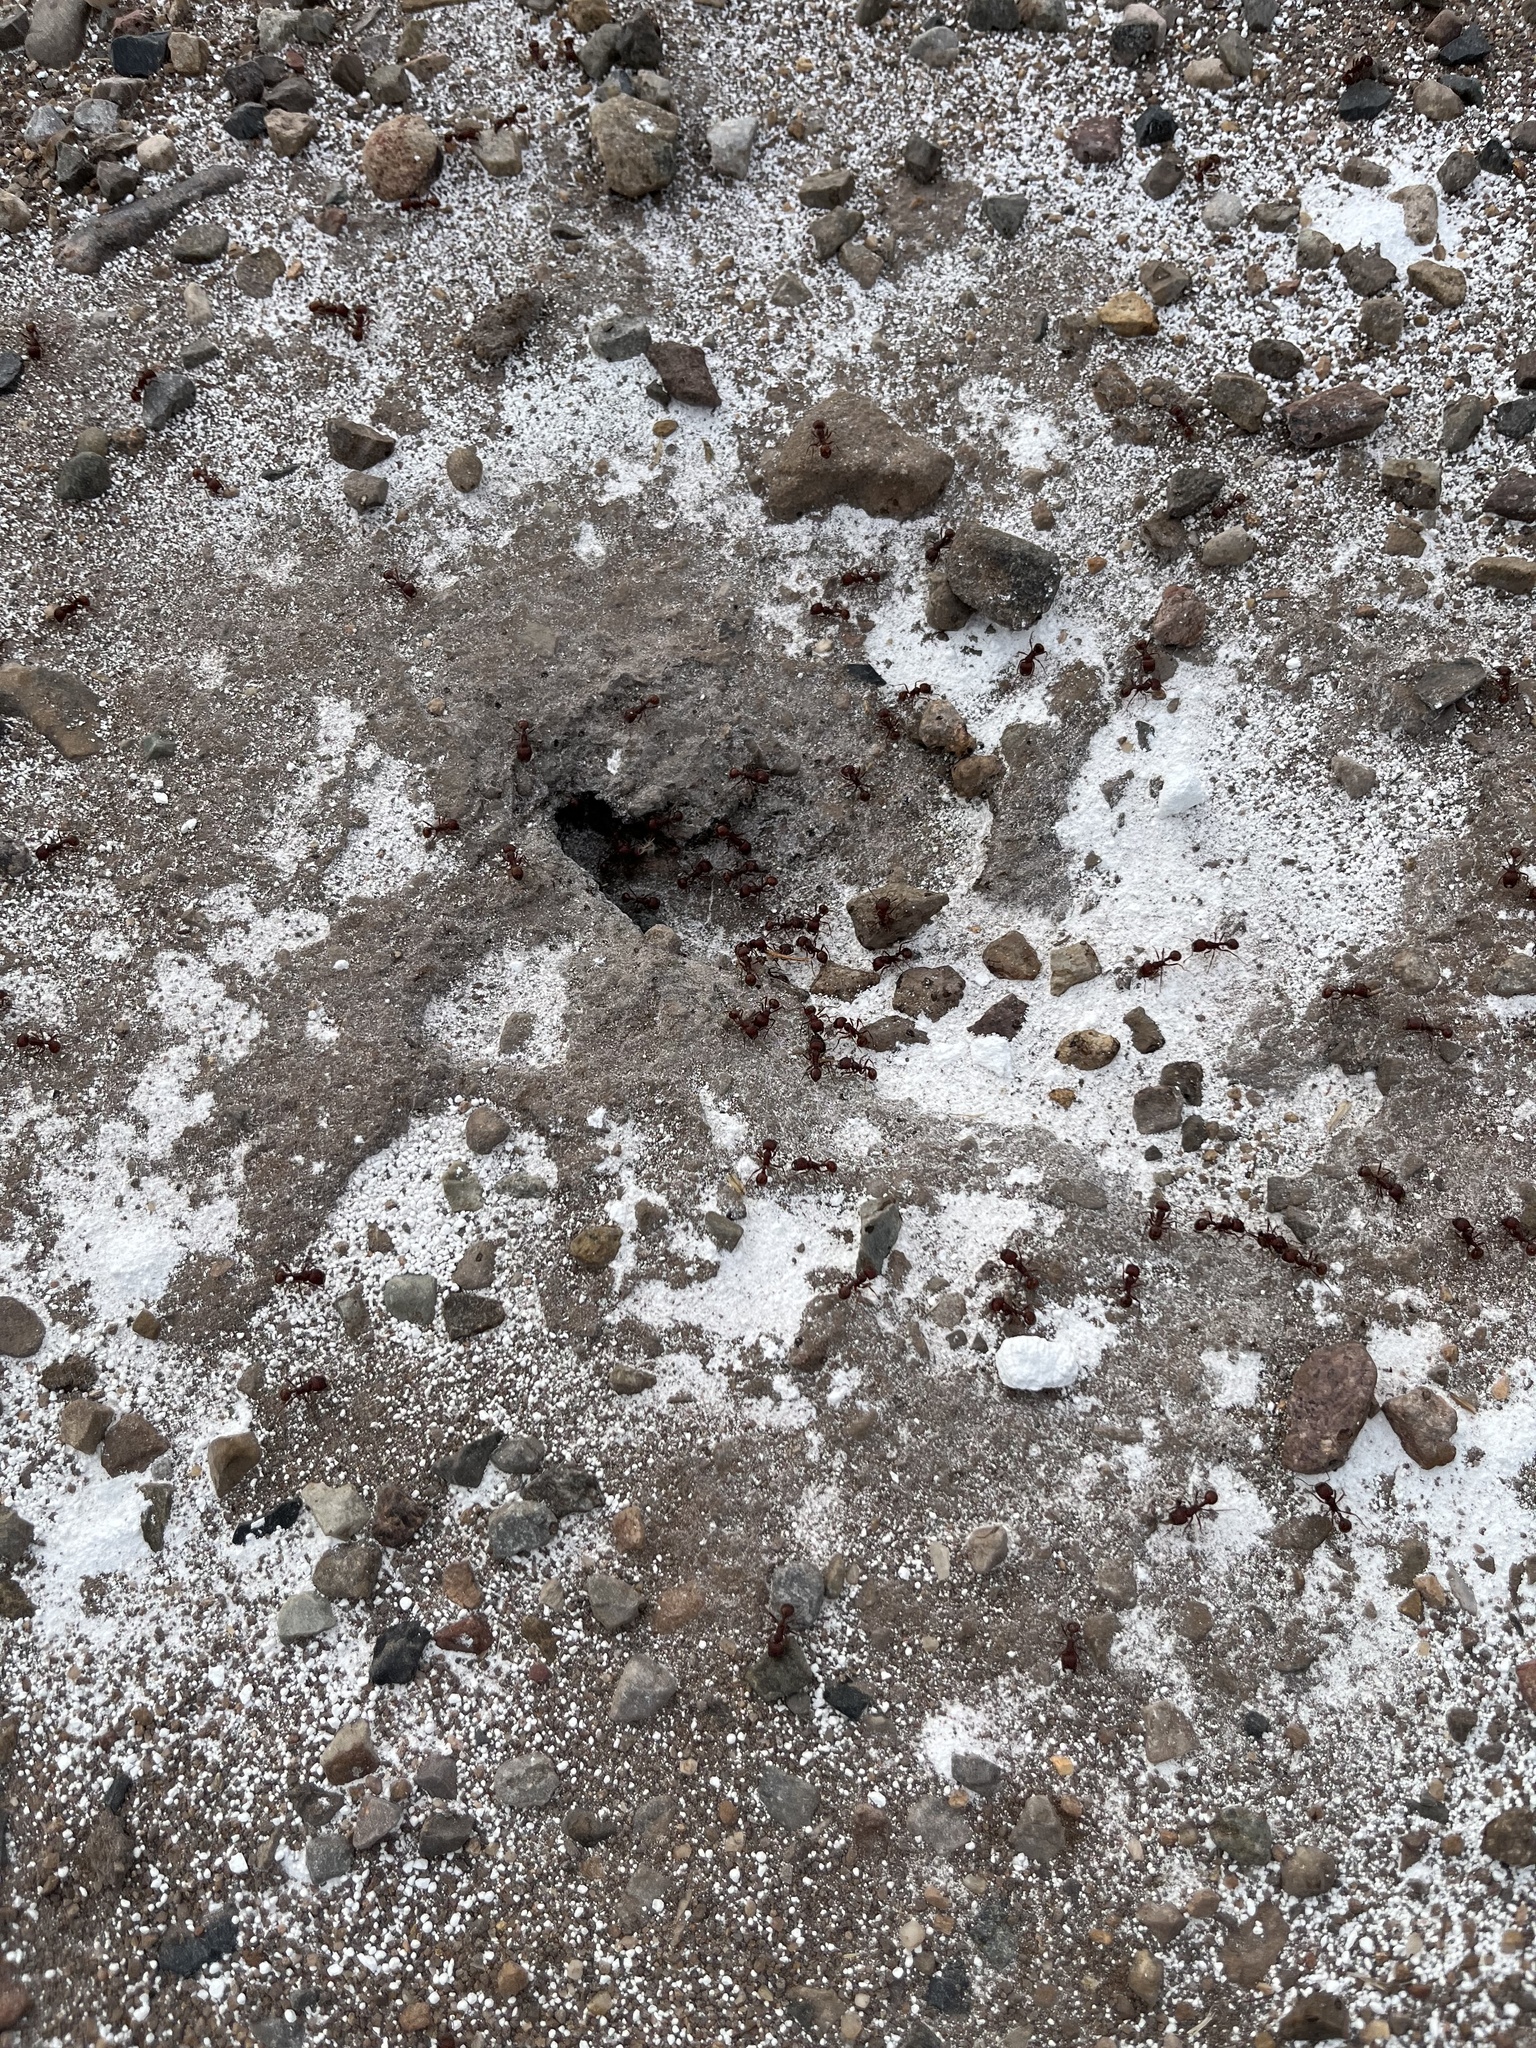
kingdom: Animalia
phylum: Arthropoda
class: Insecta
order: Hymenoptera
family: Formicidae
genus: Pogonomyrmex
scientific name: Pogonomyrmex barbatus
